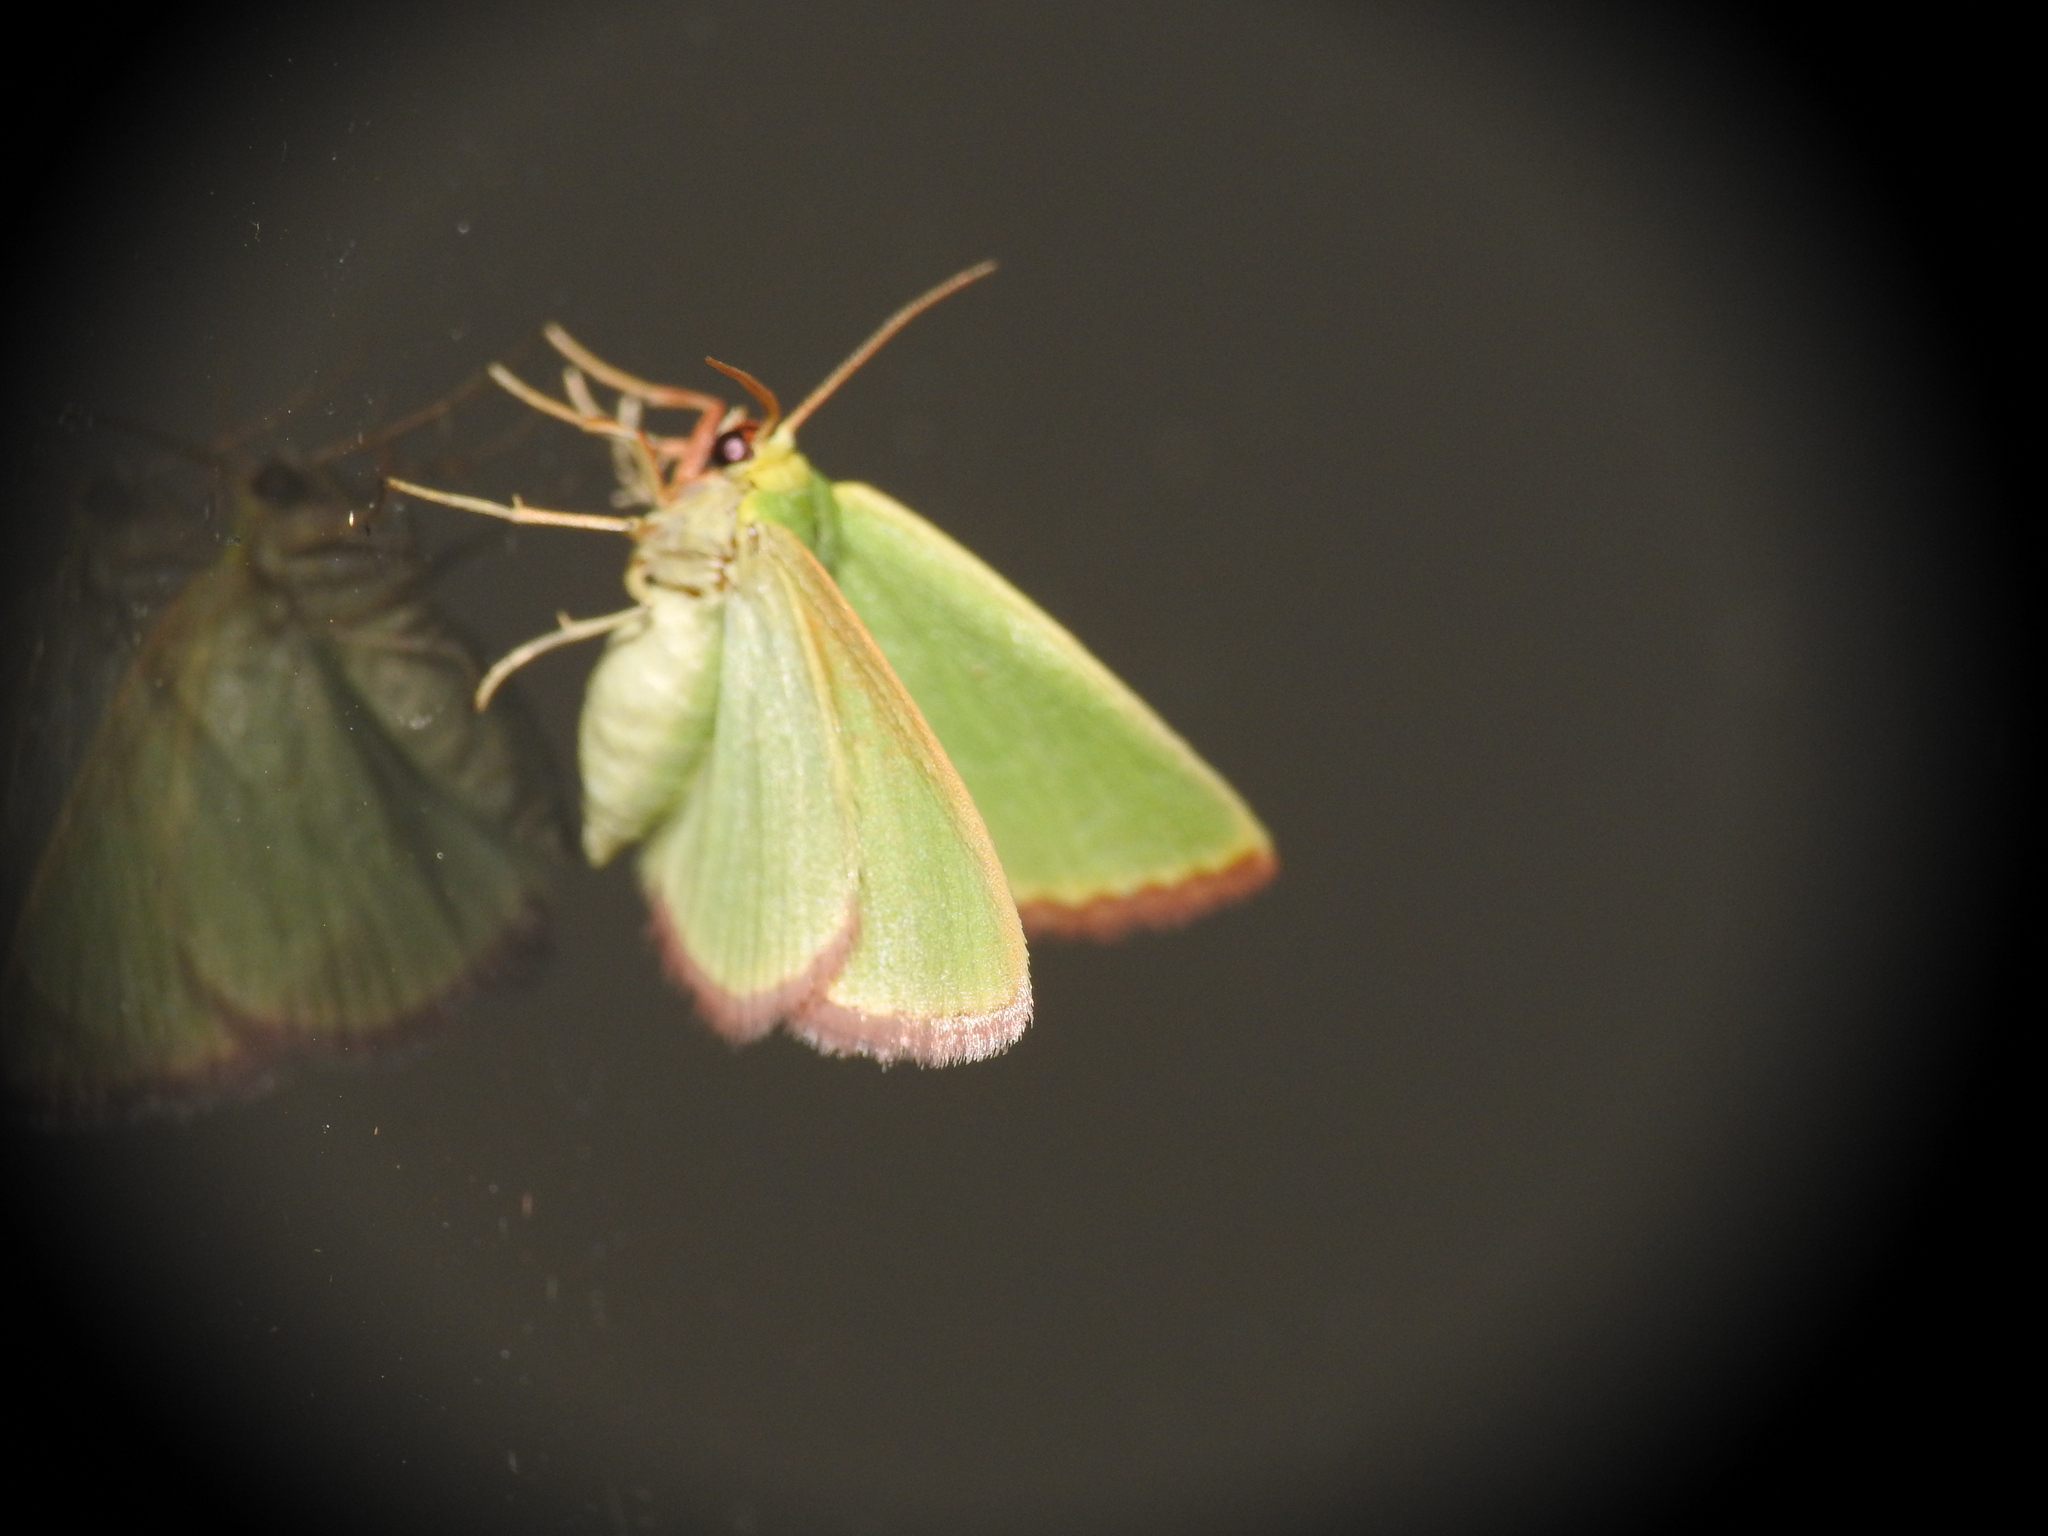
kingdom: Animalia
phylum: Arthropoda
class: Insecta
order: Lepidoptera
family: Geometridae
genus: Eucrostes
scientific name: Eucrostes indigenata
